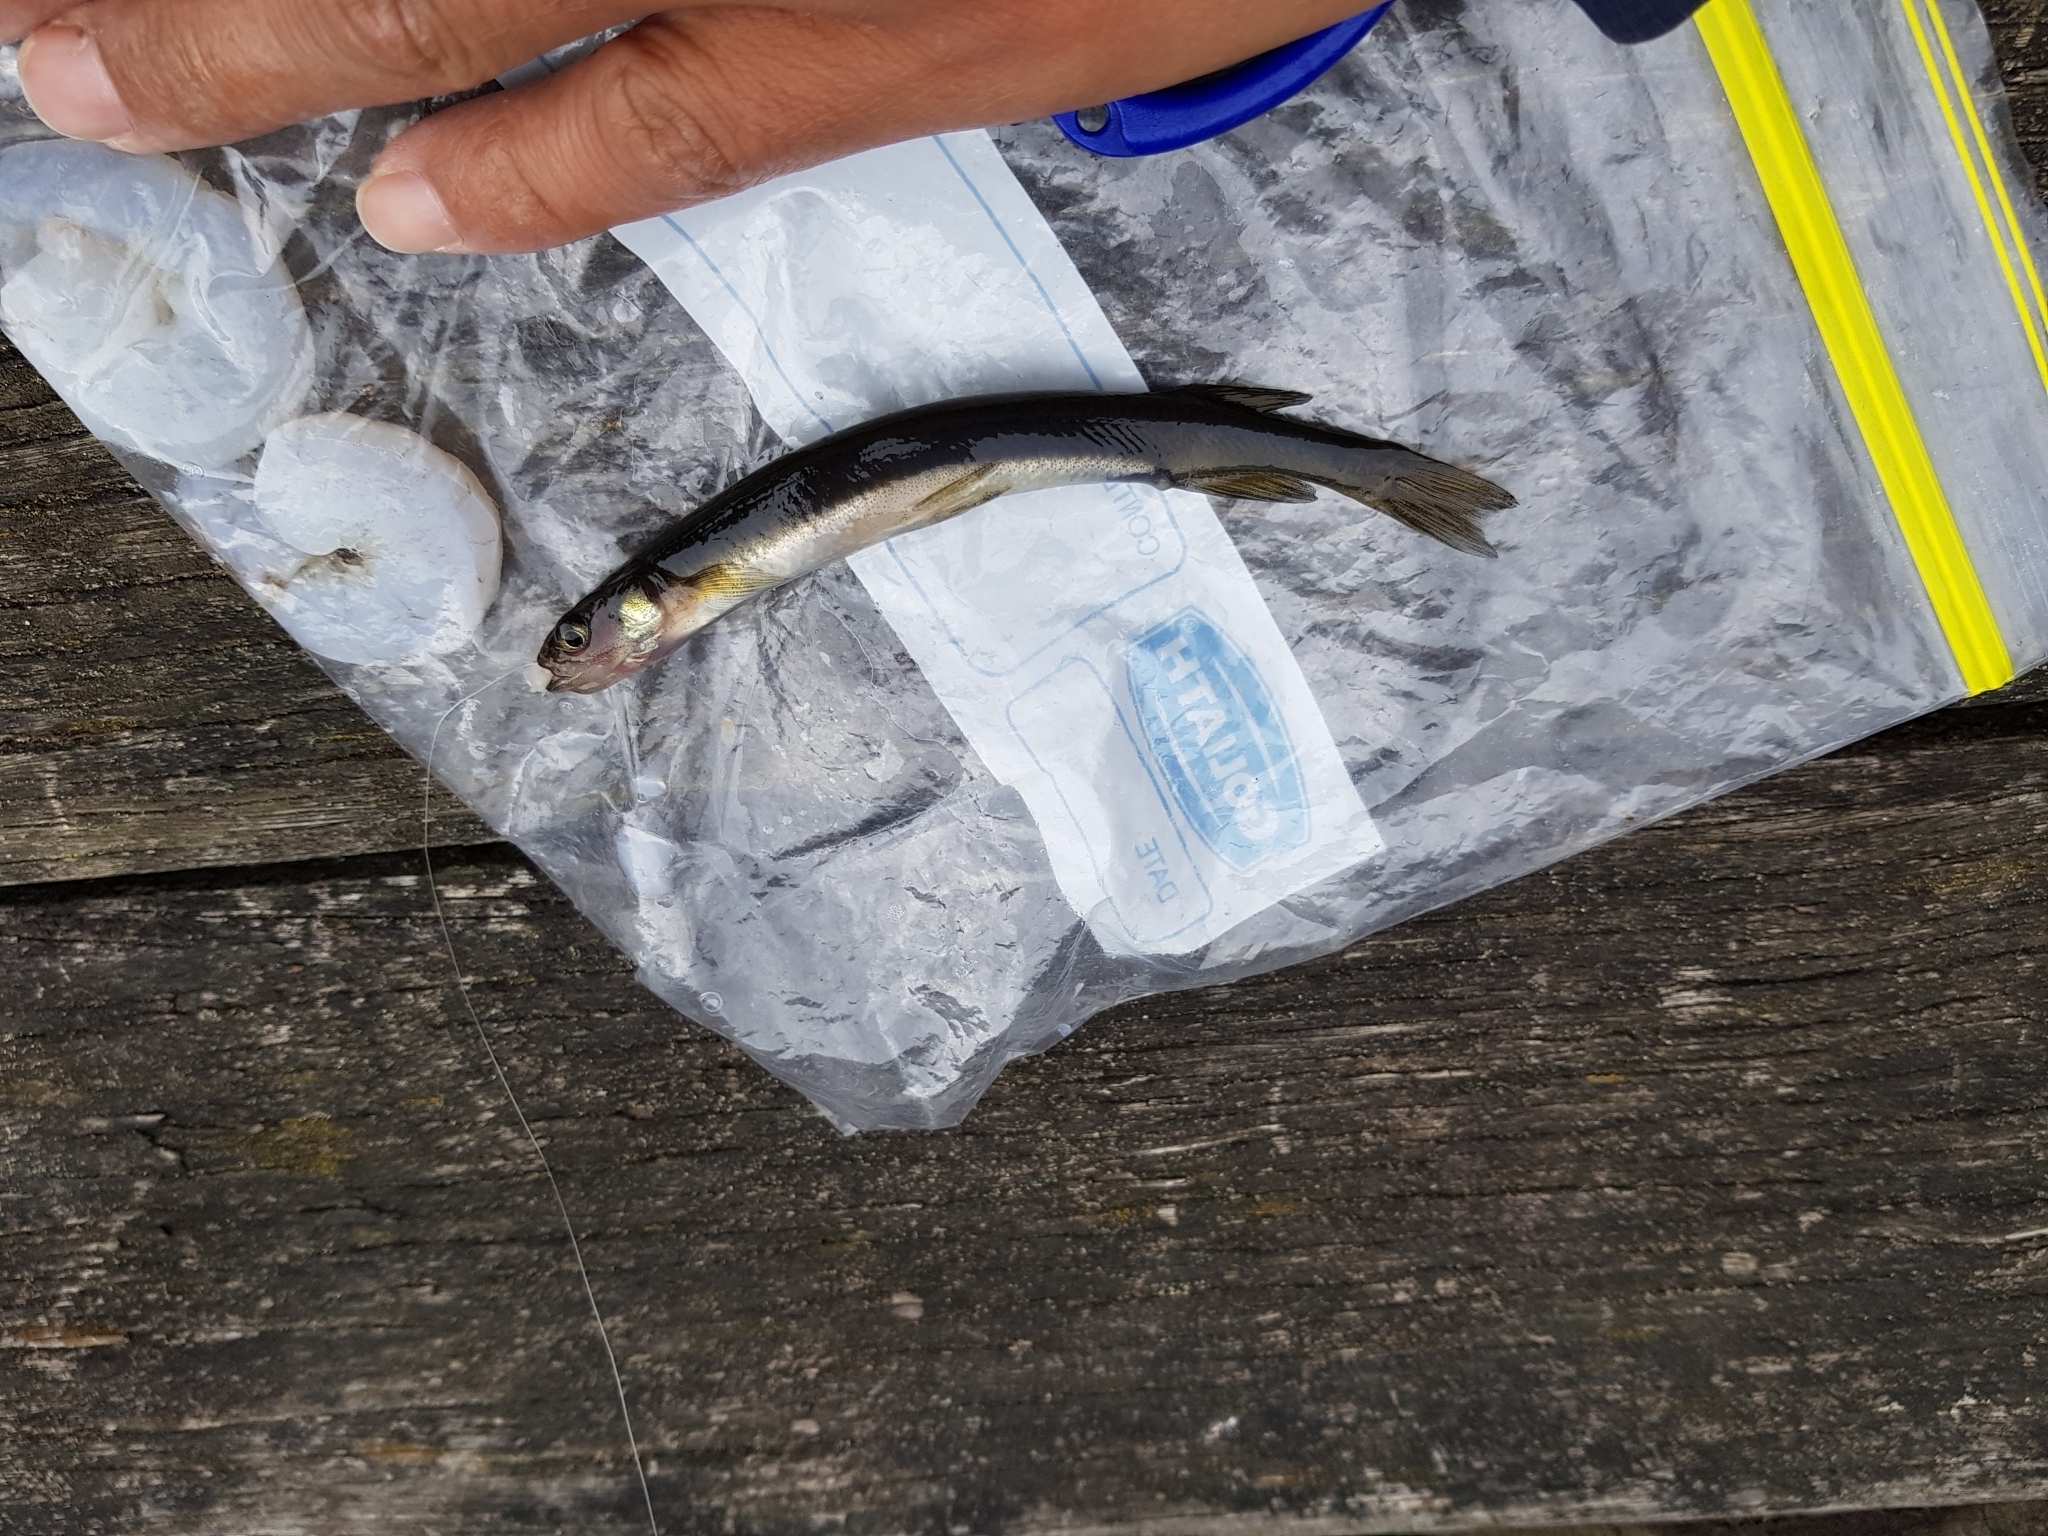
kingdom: Animalia
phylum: Chordata
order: Osmeriformes
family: Galaxiidae
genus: Galaxias
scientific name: Galaxias maculatus
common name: Common galaxias
